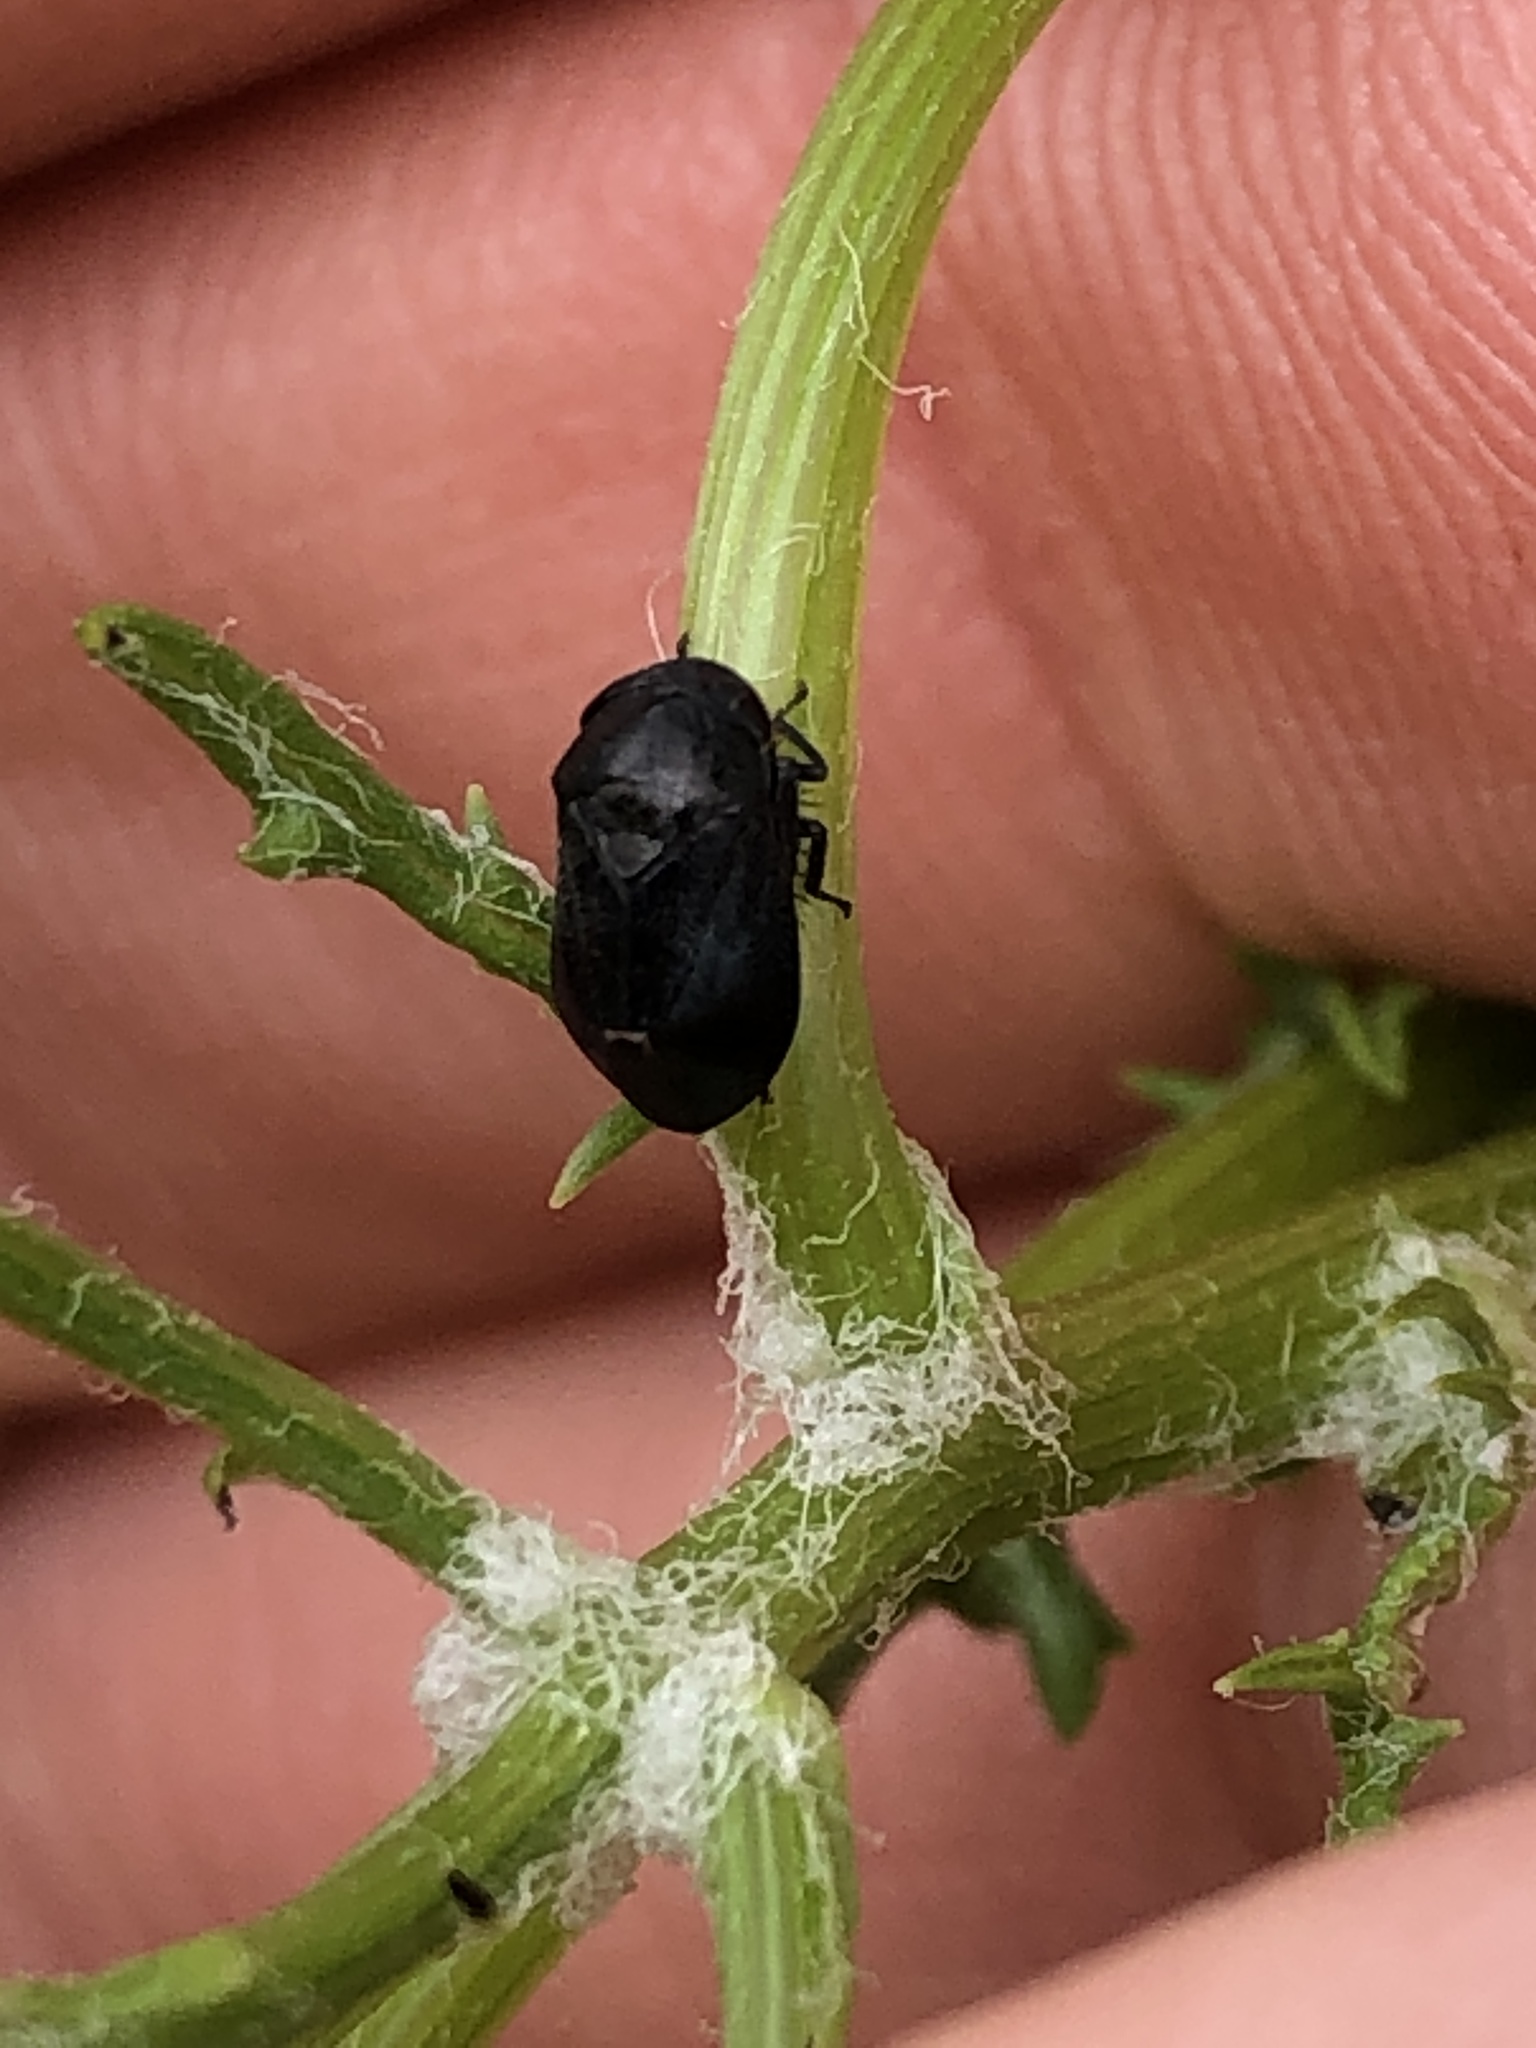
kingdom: Animalia
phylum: Arthropoda
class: Insecta
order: Hemiptera
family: Cicadellidae
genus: Penthimia
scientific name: Penthimia nigra
